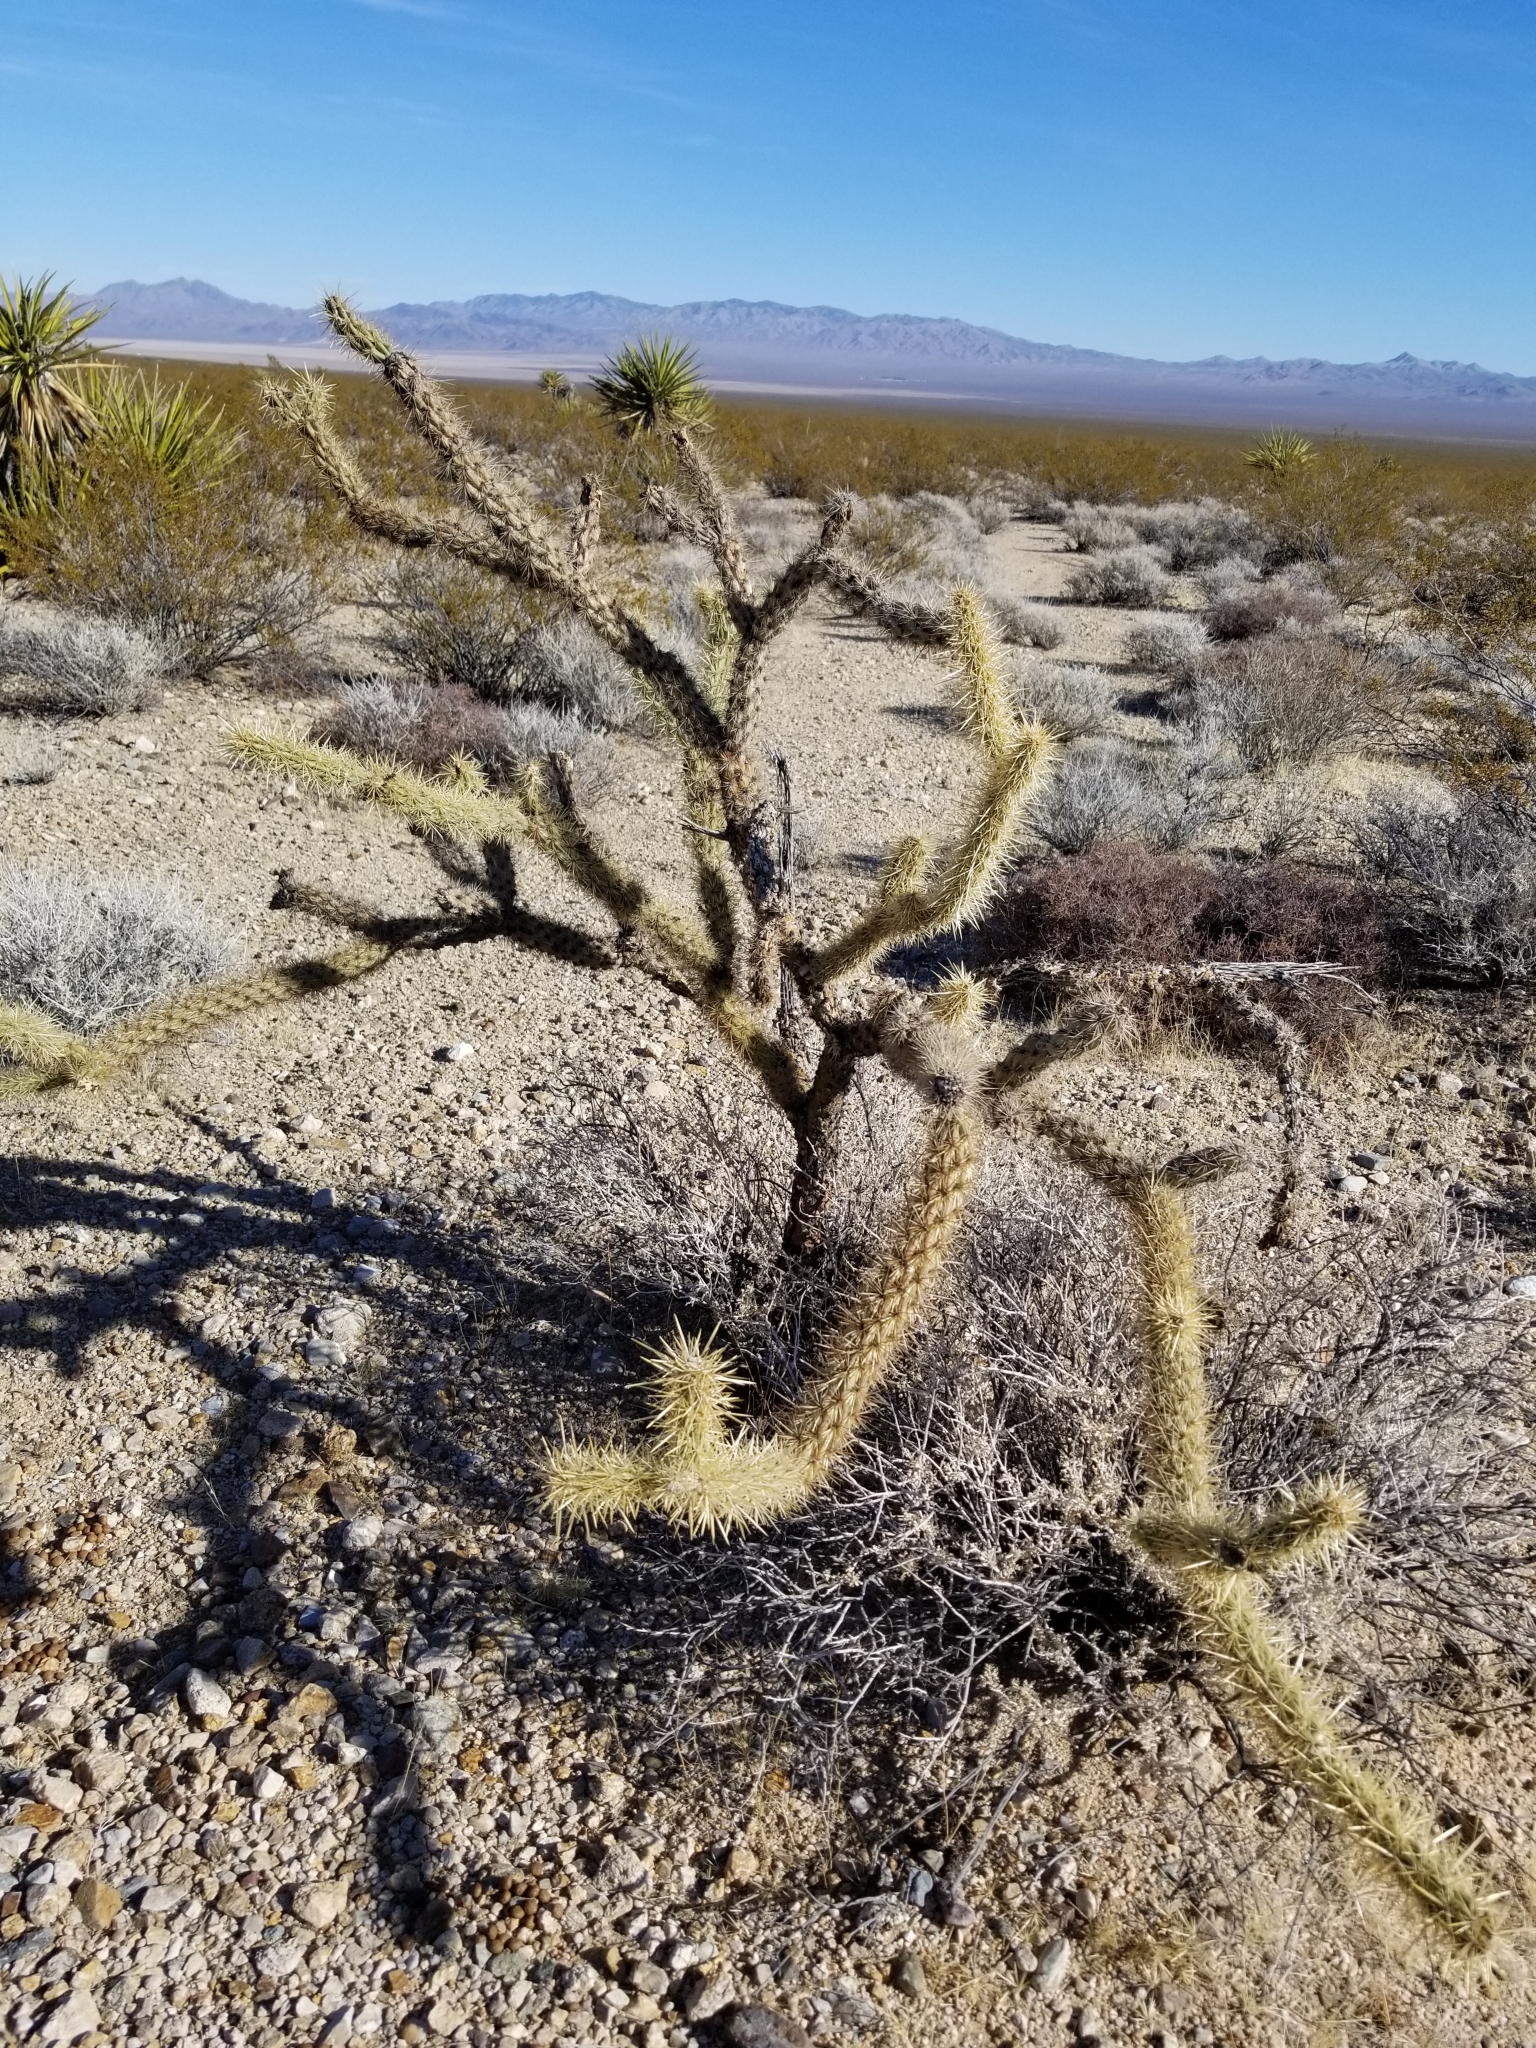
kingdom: Plantae
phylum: Tracheophyta
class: Magnoliopsida
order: Caryophyllales
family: Cactaceae
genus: Cylindropuntia
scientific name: Cylindropuntia acanthocarpa
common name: Buckhorn cholla
